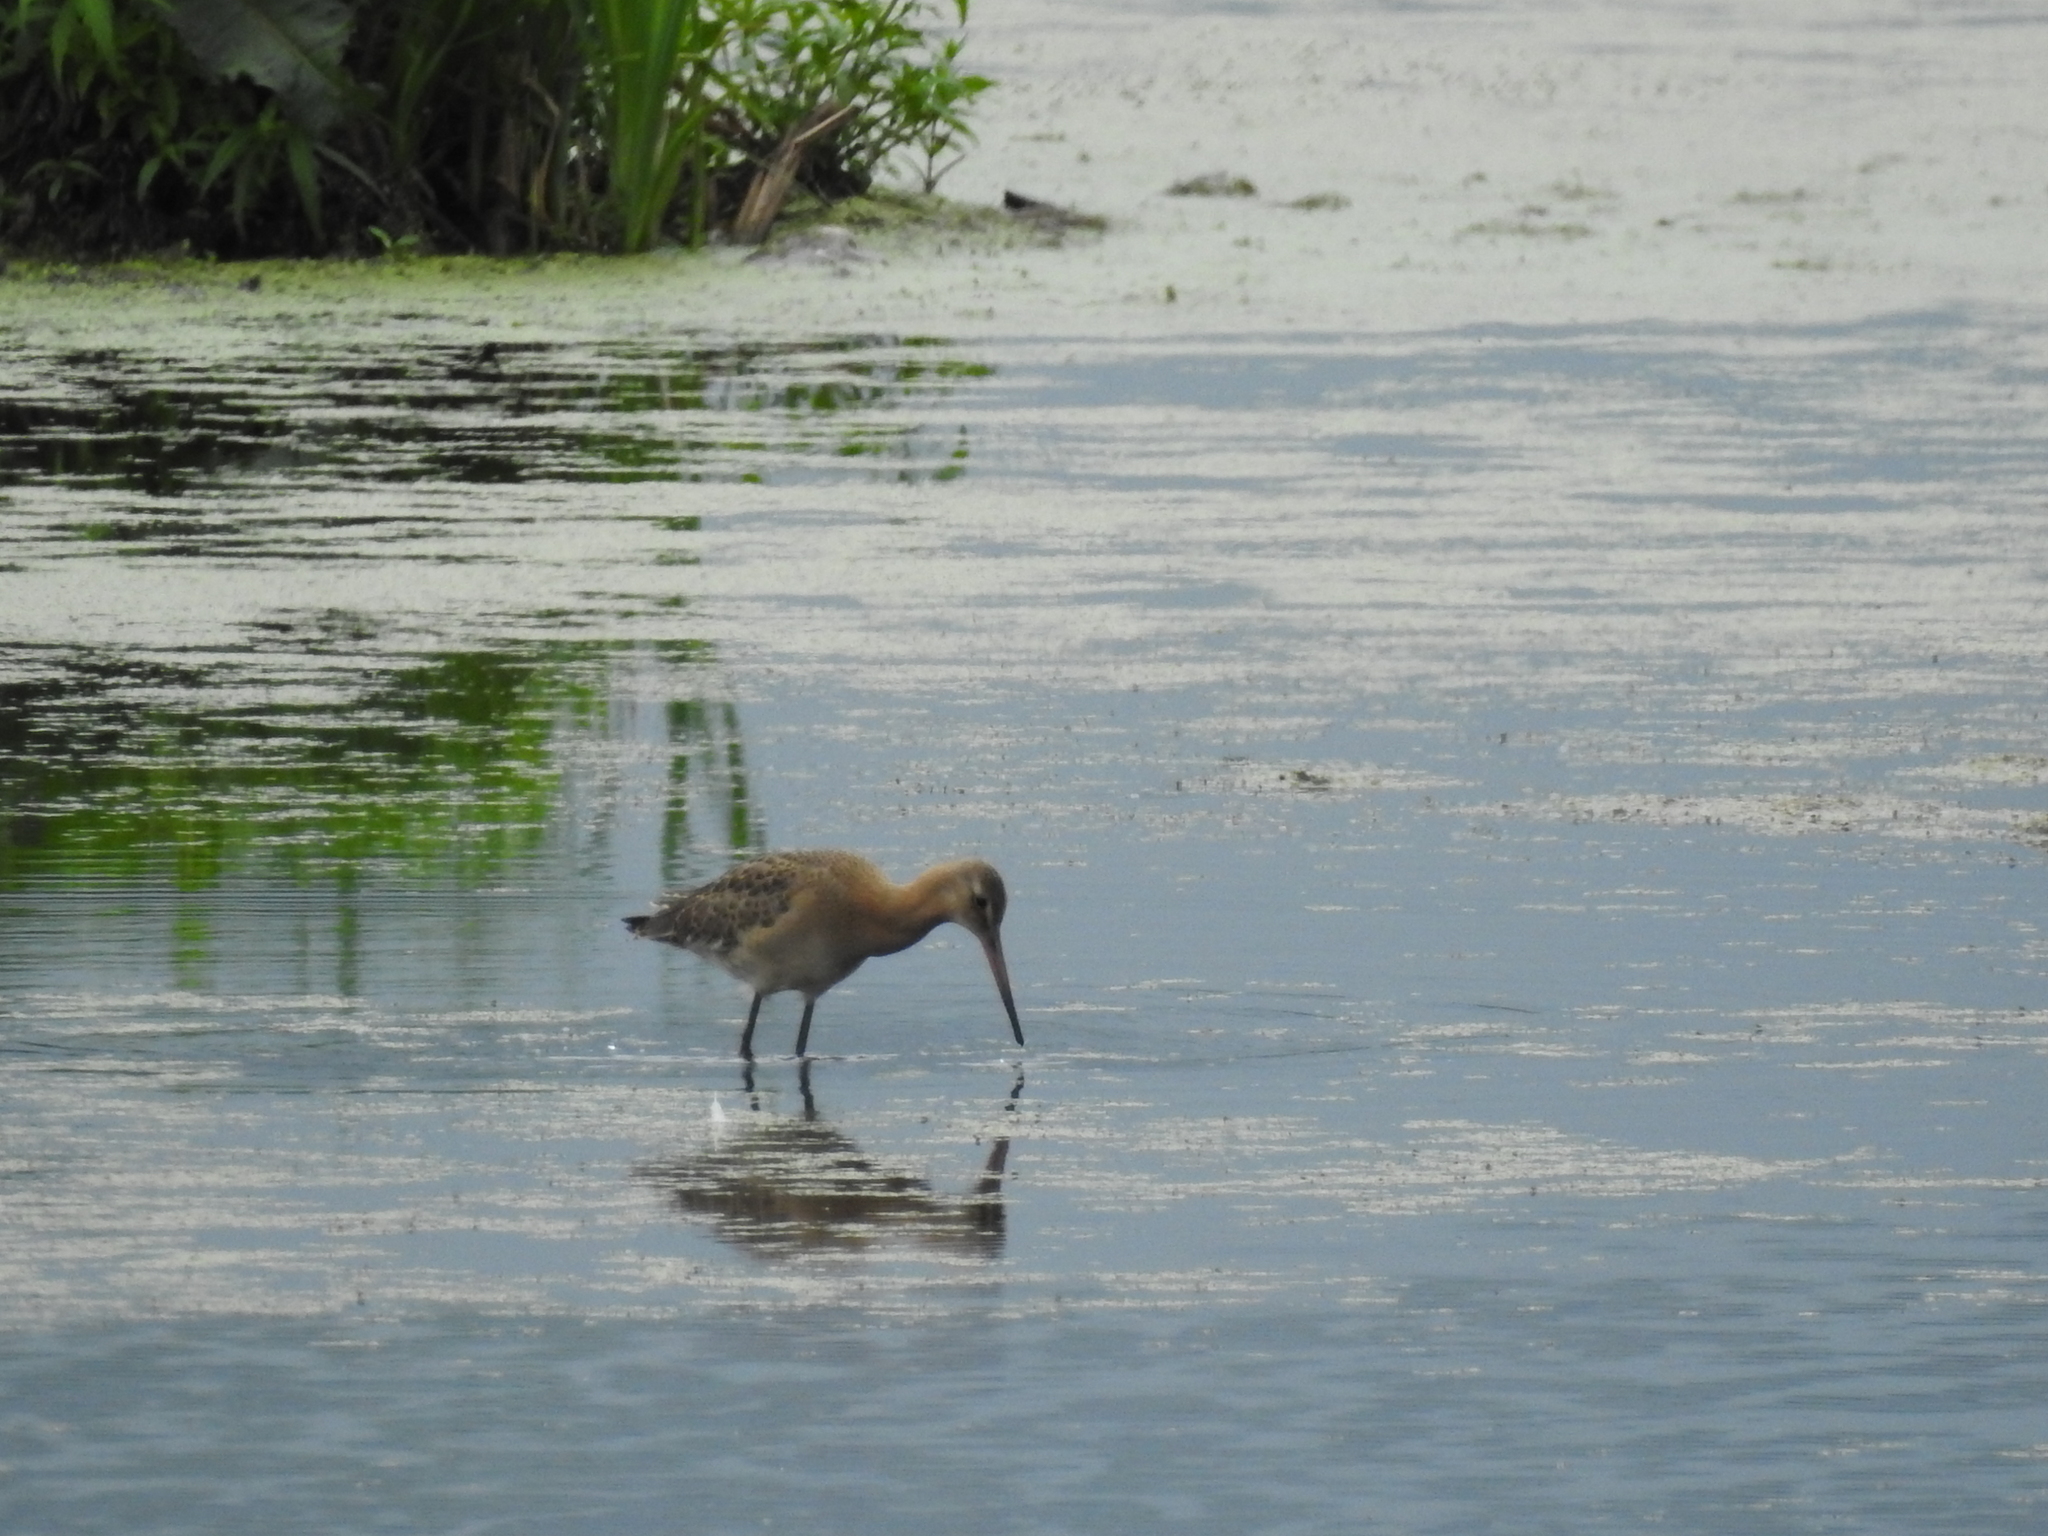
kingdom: Animalia
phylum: Chordata
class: Aves
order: Charadriiformes
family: Scolopacidae
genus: Limosa
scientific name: Limosa limosa
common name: Black-tailed godwit
